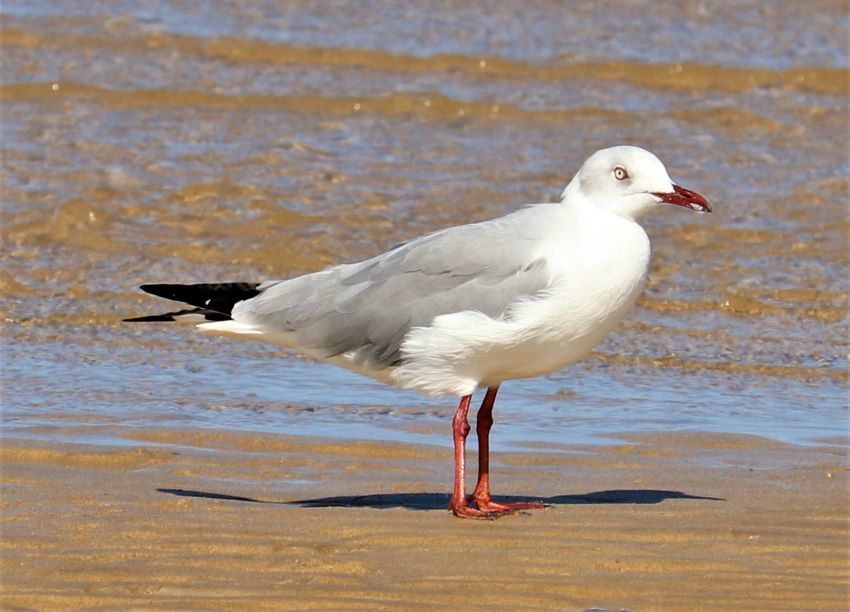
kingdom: Animalia
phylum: Chordata
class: Aves
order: Charadriiformes
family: Laridae
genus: Chroicocephalus
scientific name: Chroicocephalus cirrocephalus
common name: Grey-headed gull
